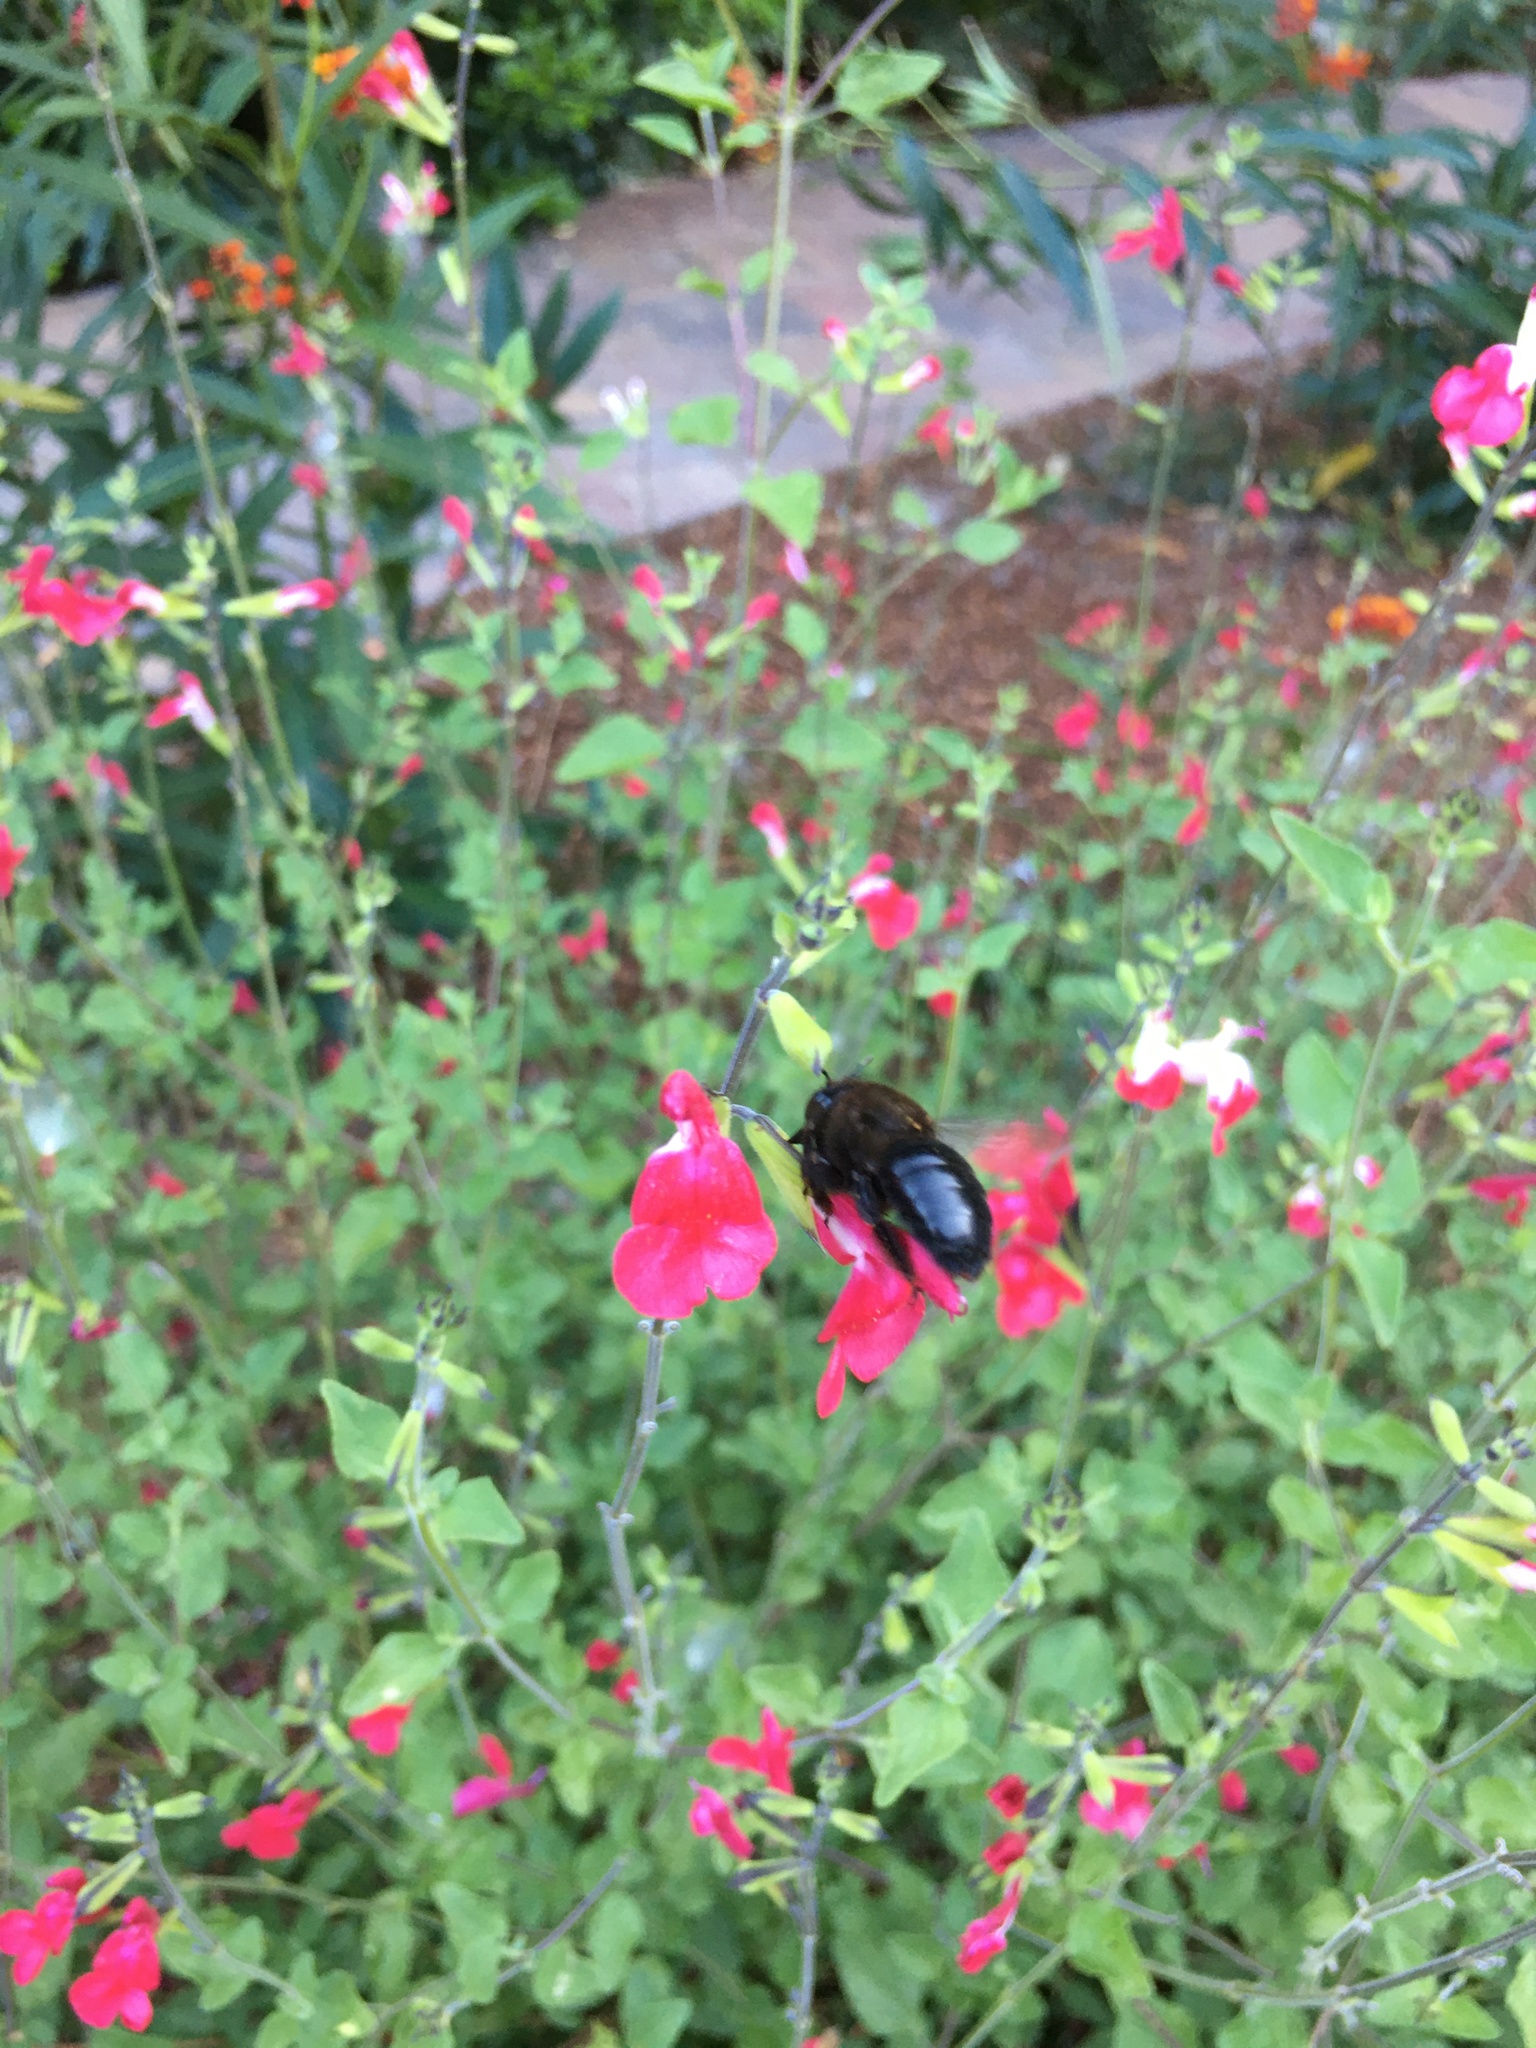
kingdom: Animalia
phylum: Arthropoda
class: Insecta
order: Hymenoptera
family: Apidae
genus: Xylocopa
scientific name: Xylocopa tabaniformis
